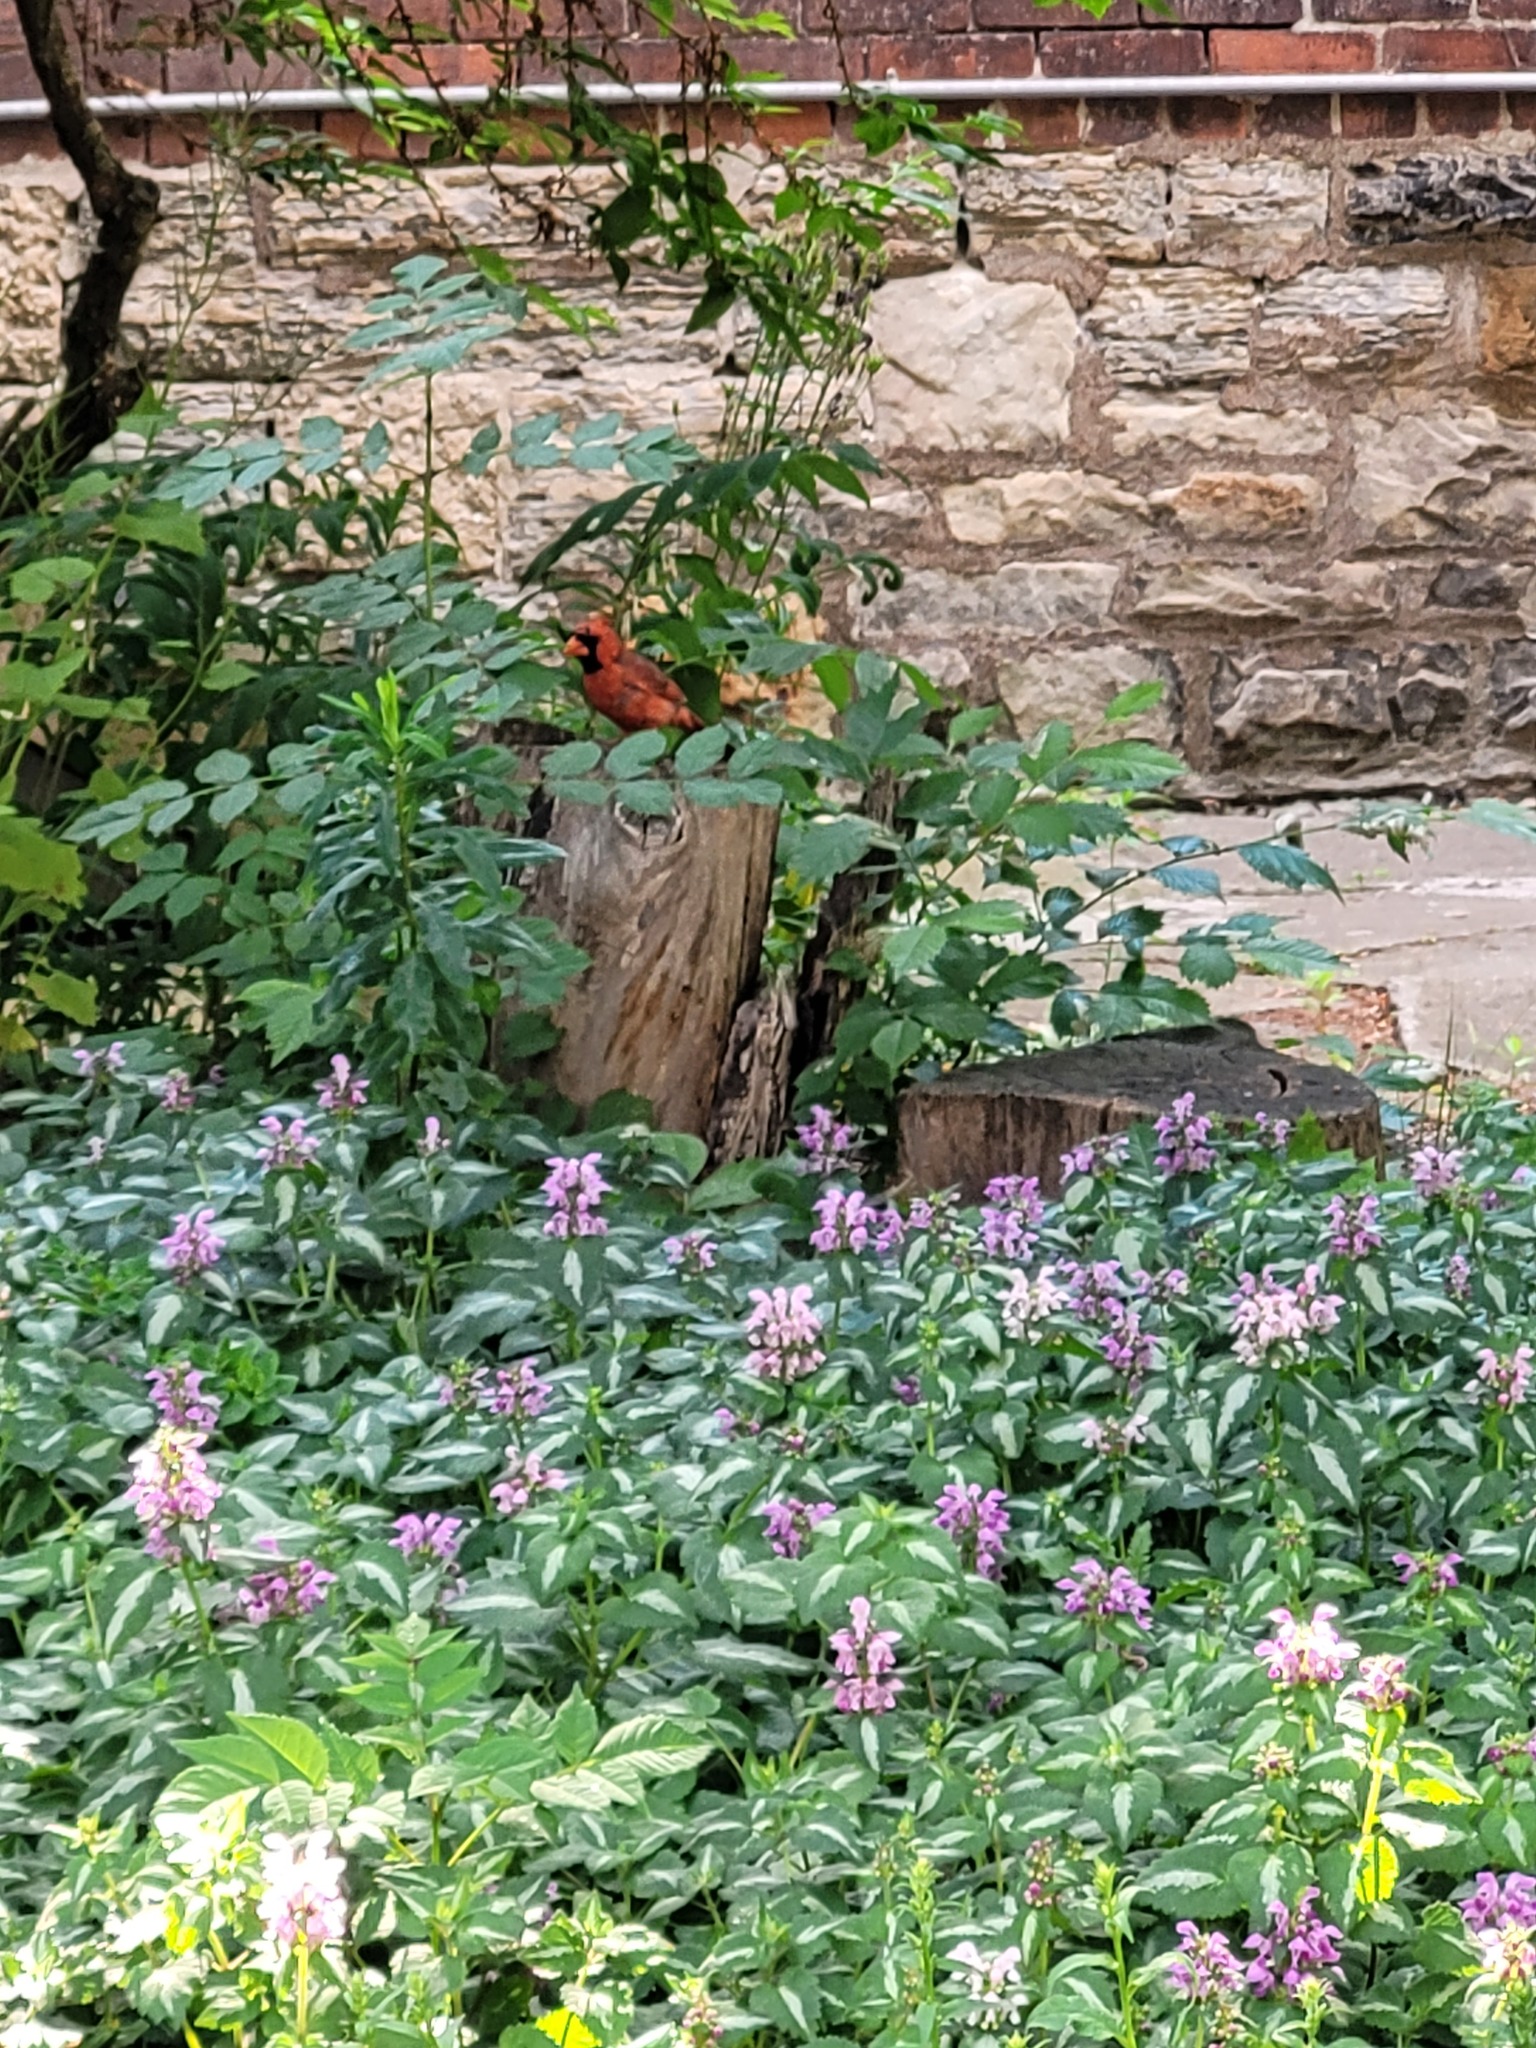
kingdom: Animalia
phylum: Chordata
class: Aves
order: Passeriformes
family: Cardinalidae
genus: Cardinalis
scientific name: Cardinalis cardinalis
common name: Northern cardinal
